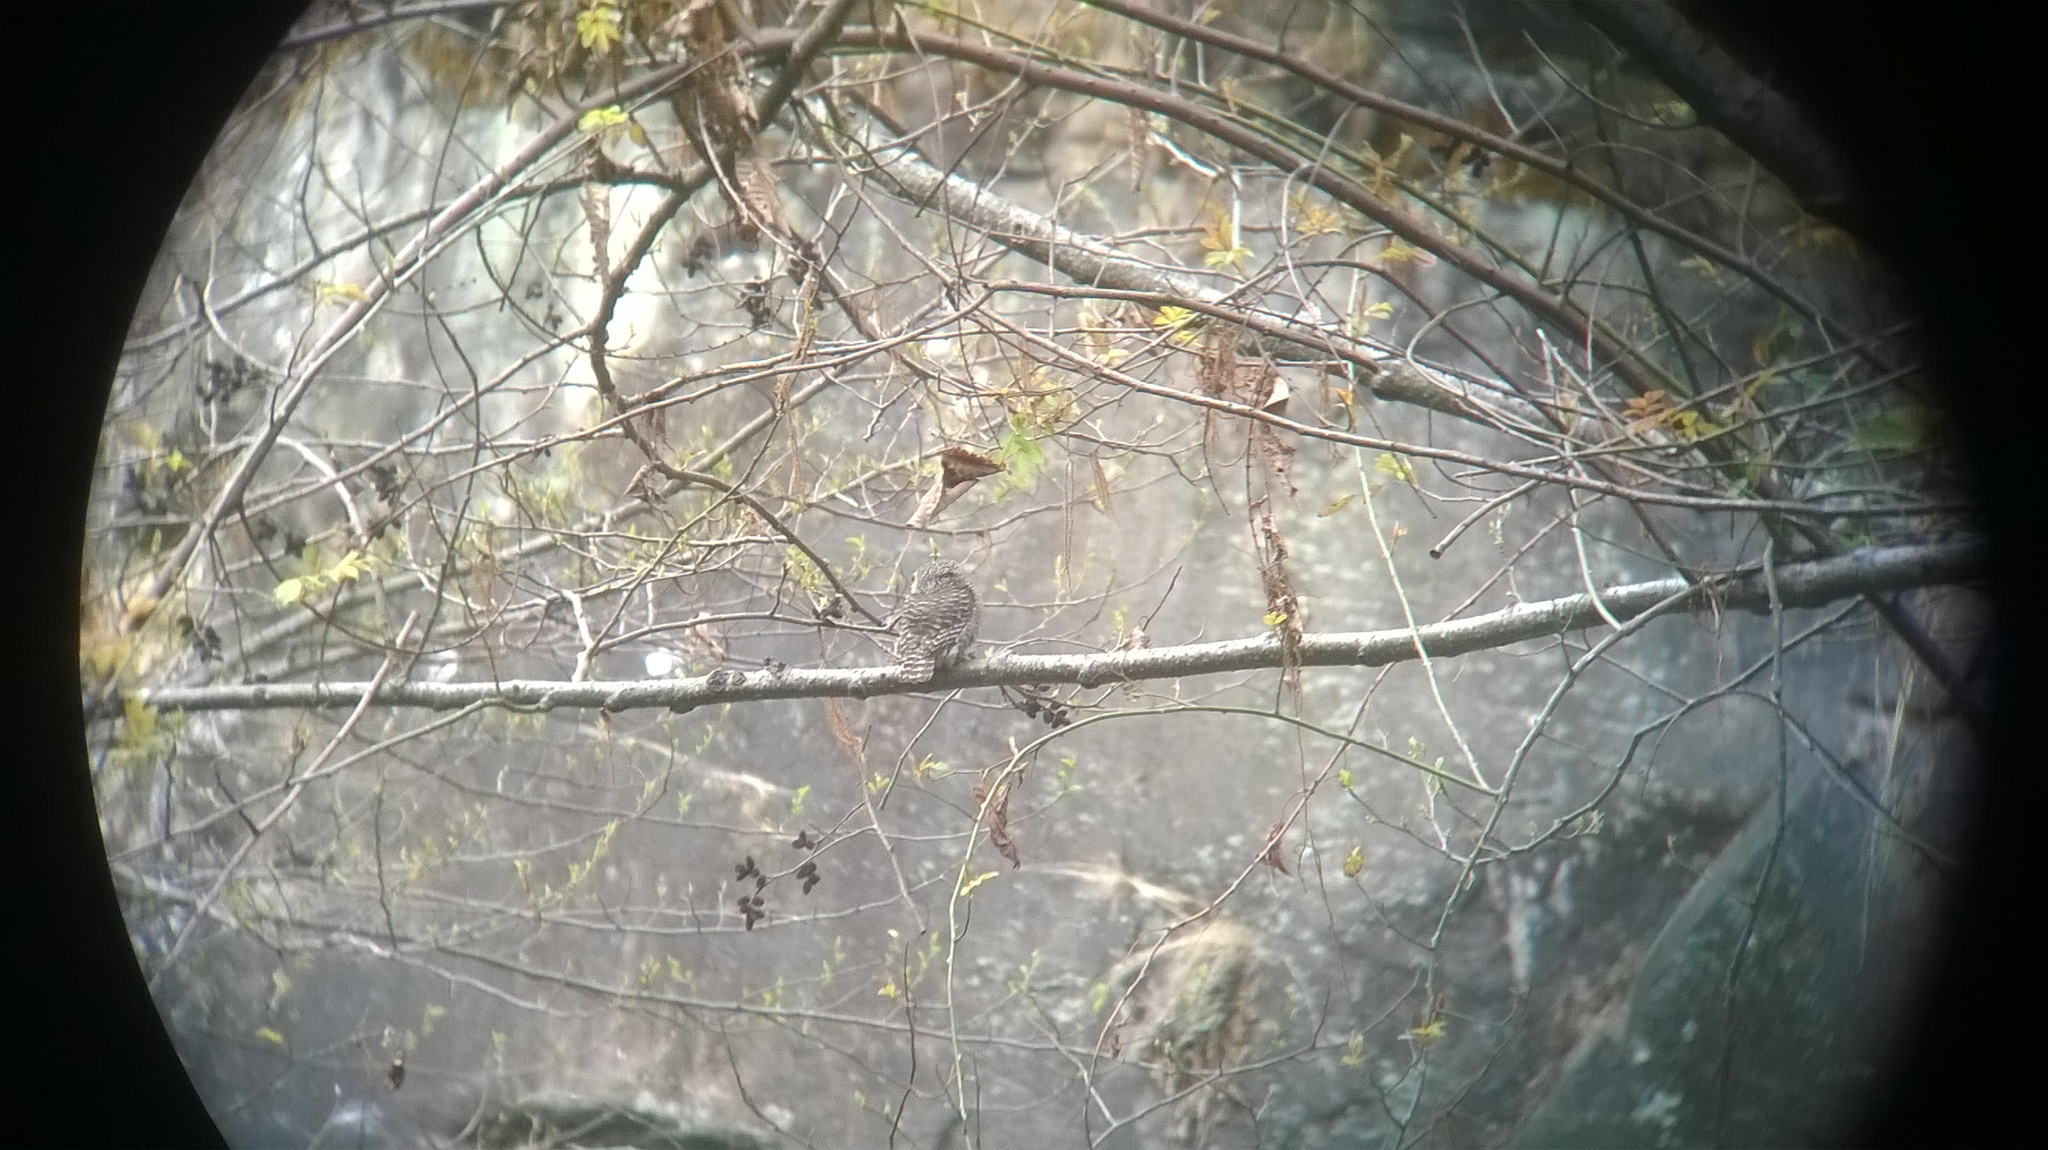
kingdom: Animalia
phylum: Chordata
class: Aves
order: Strigiformes
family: Strigidae
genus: Glaucidium
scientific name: Glaucidium brodiei
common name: Collared owlet
